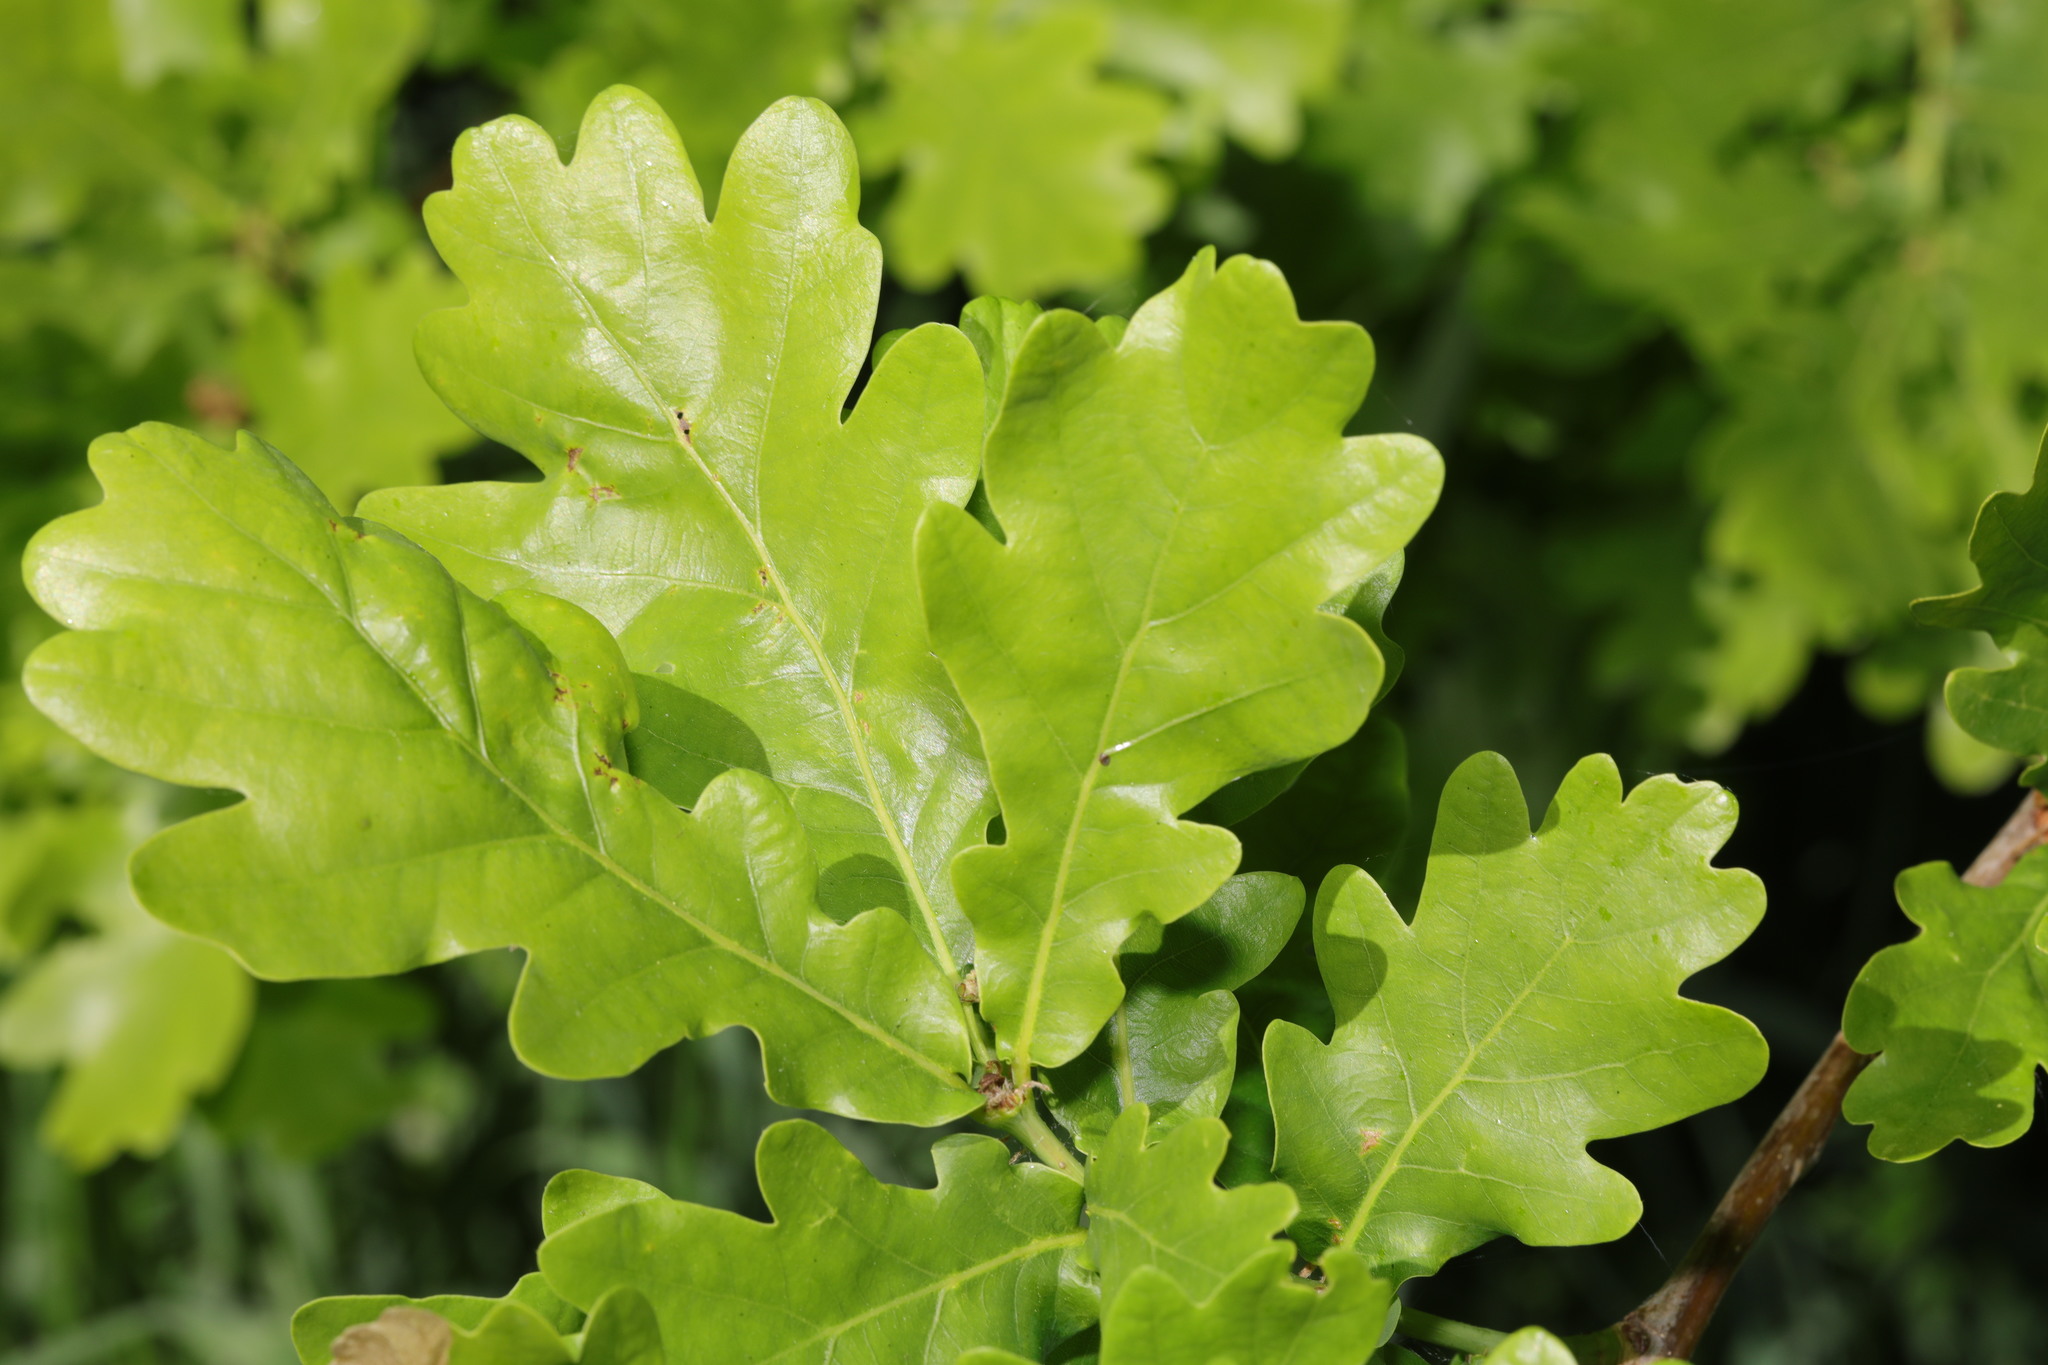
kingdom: Plantae
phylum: Tracheophyta
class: Magnoliopsida
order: Fagales
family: Fagaceae
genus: Quercus
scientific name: Quercus robur
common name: Pedunculate oak
